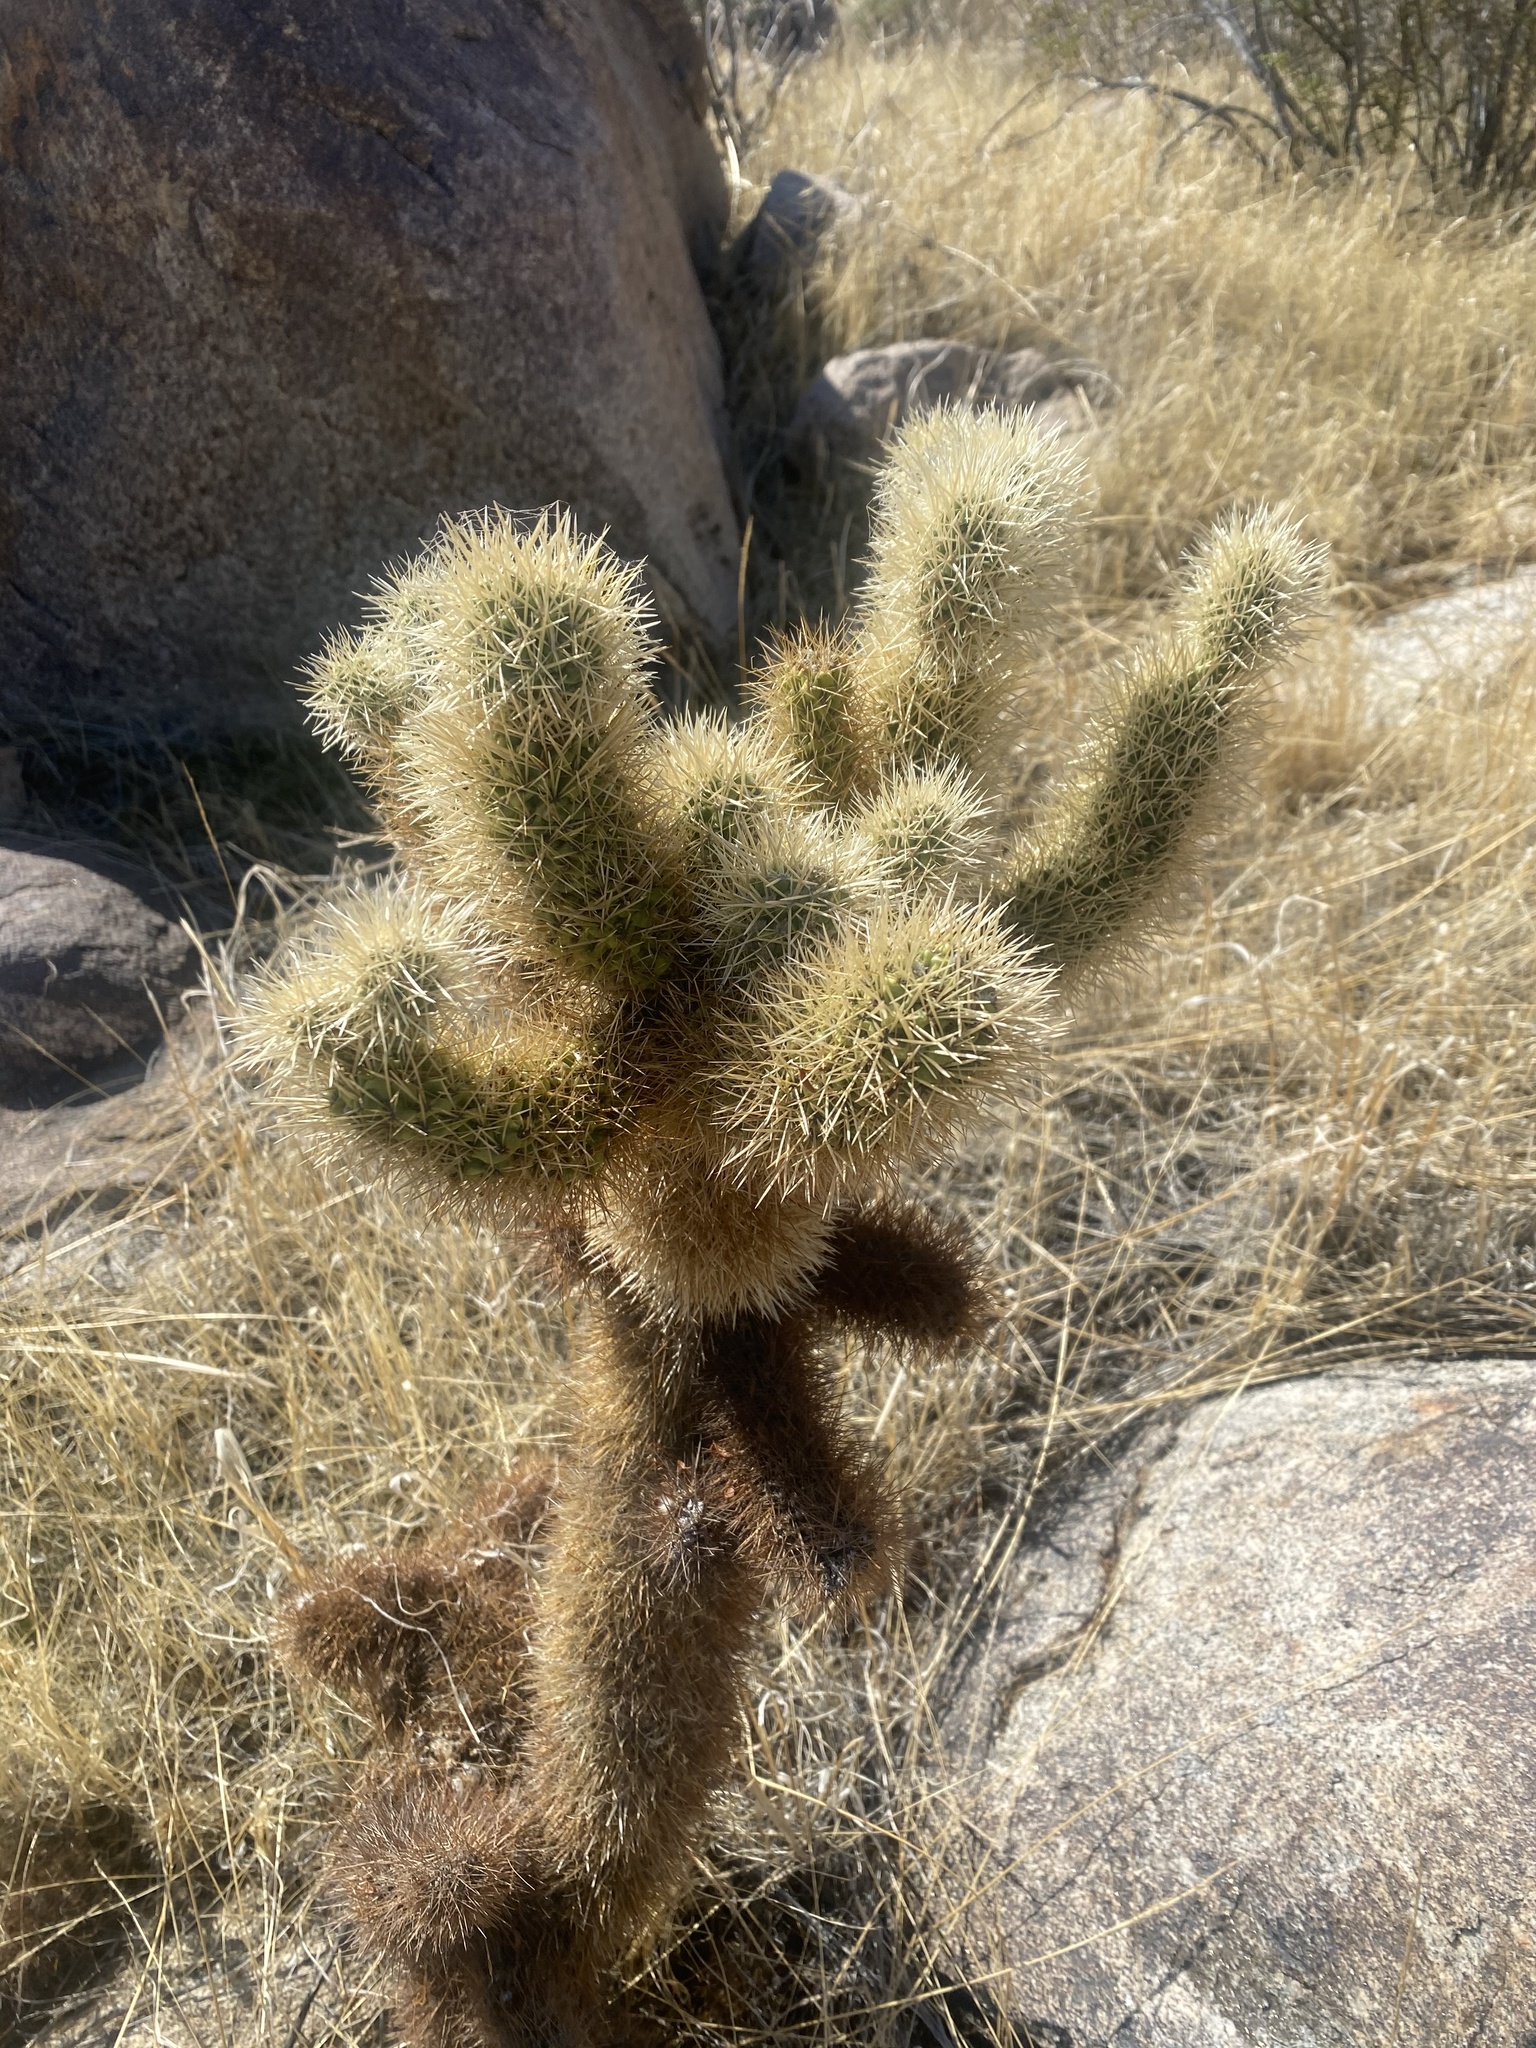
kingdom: Plantae
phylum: Tracheophyta
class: Magnoliopsida
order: Caryophyllales
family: Cactaceae
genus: Cylindropuntia
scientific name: Cylindropuntia fosbergii
